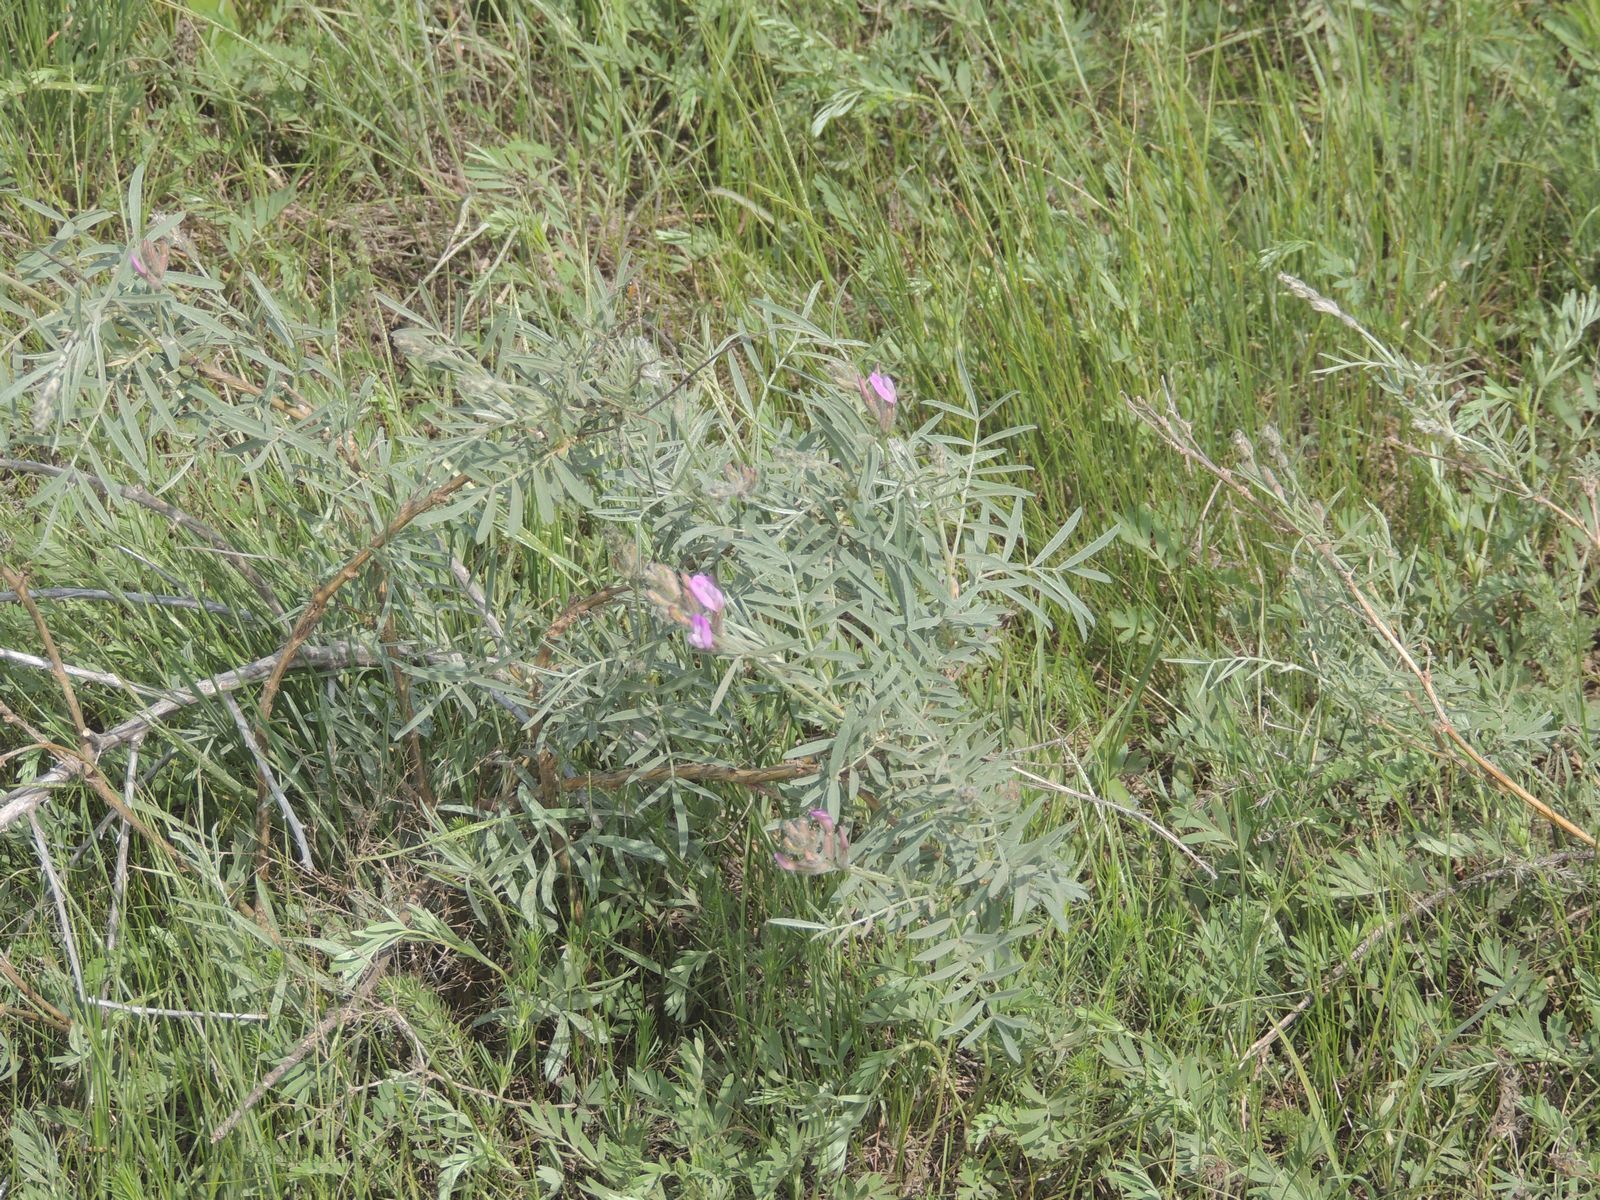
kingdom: Plantae
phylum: Tracheophyta
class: Magnoliopsida
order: Fabales
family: Fabaceae
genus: Astragalus
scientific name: Astragalus brachylobus
